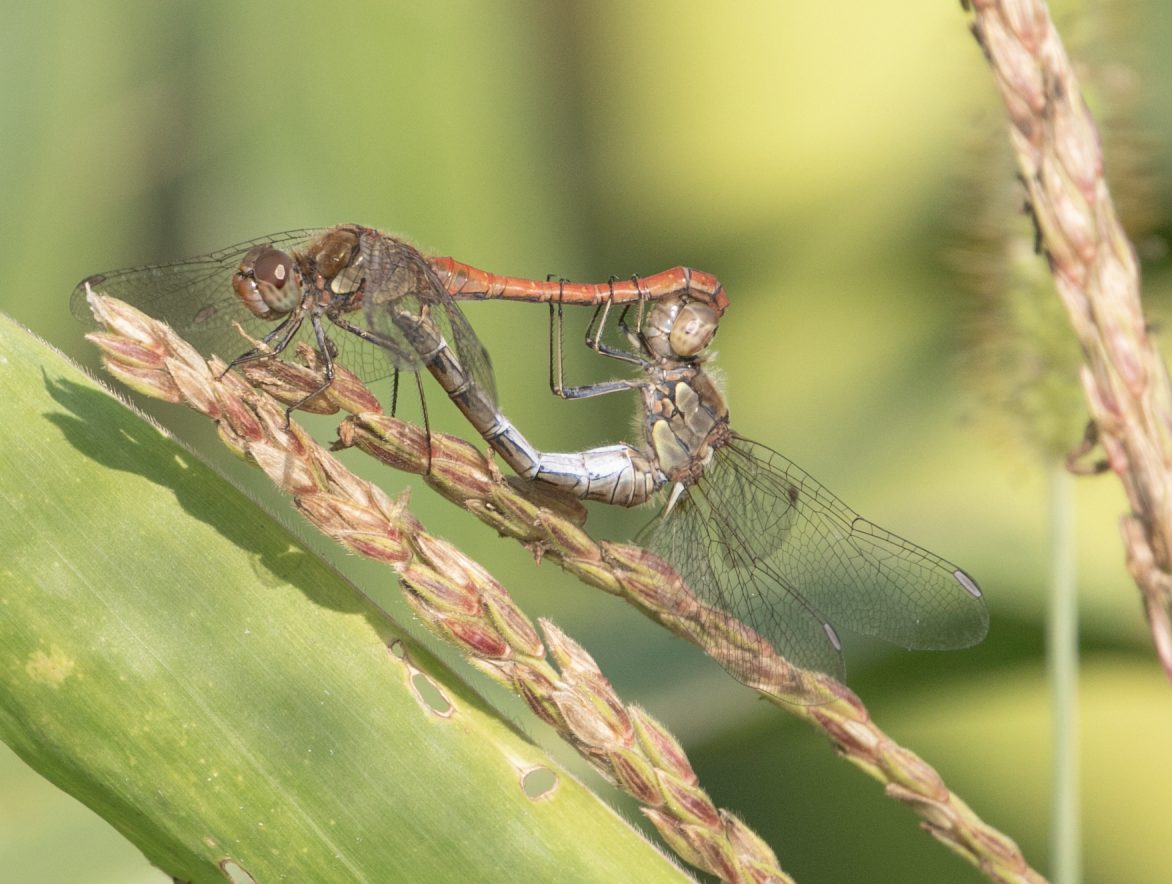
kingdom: Animalia
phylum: Arthropoda
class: Insecta
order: Odonata
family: Libellulidae
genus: Sympetrum
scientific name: Sympetrum striolatum
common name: Common darter
